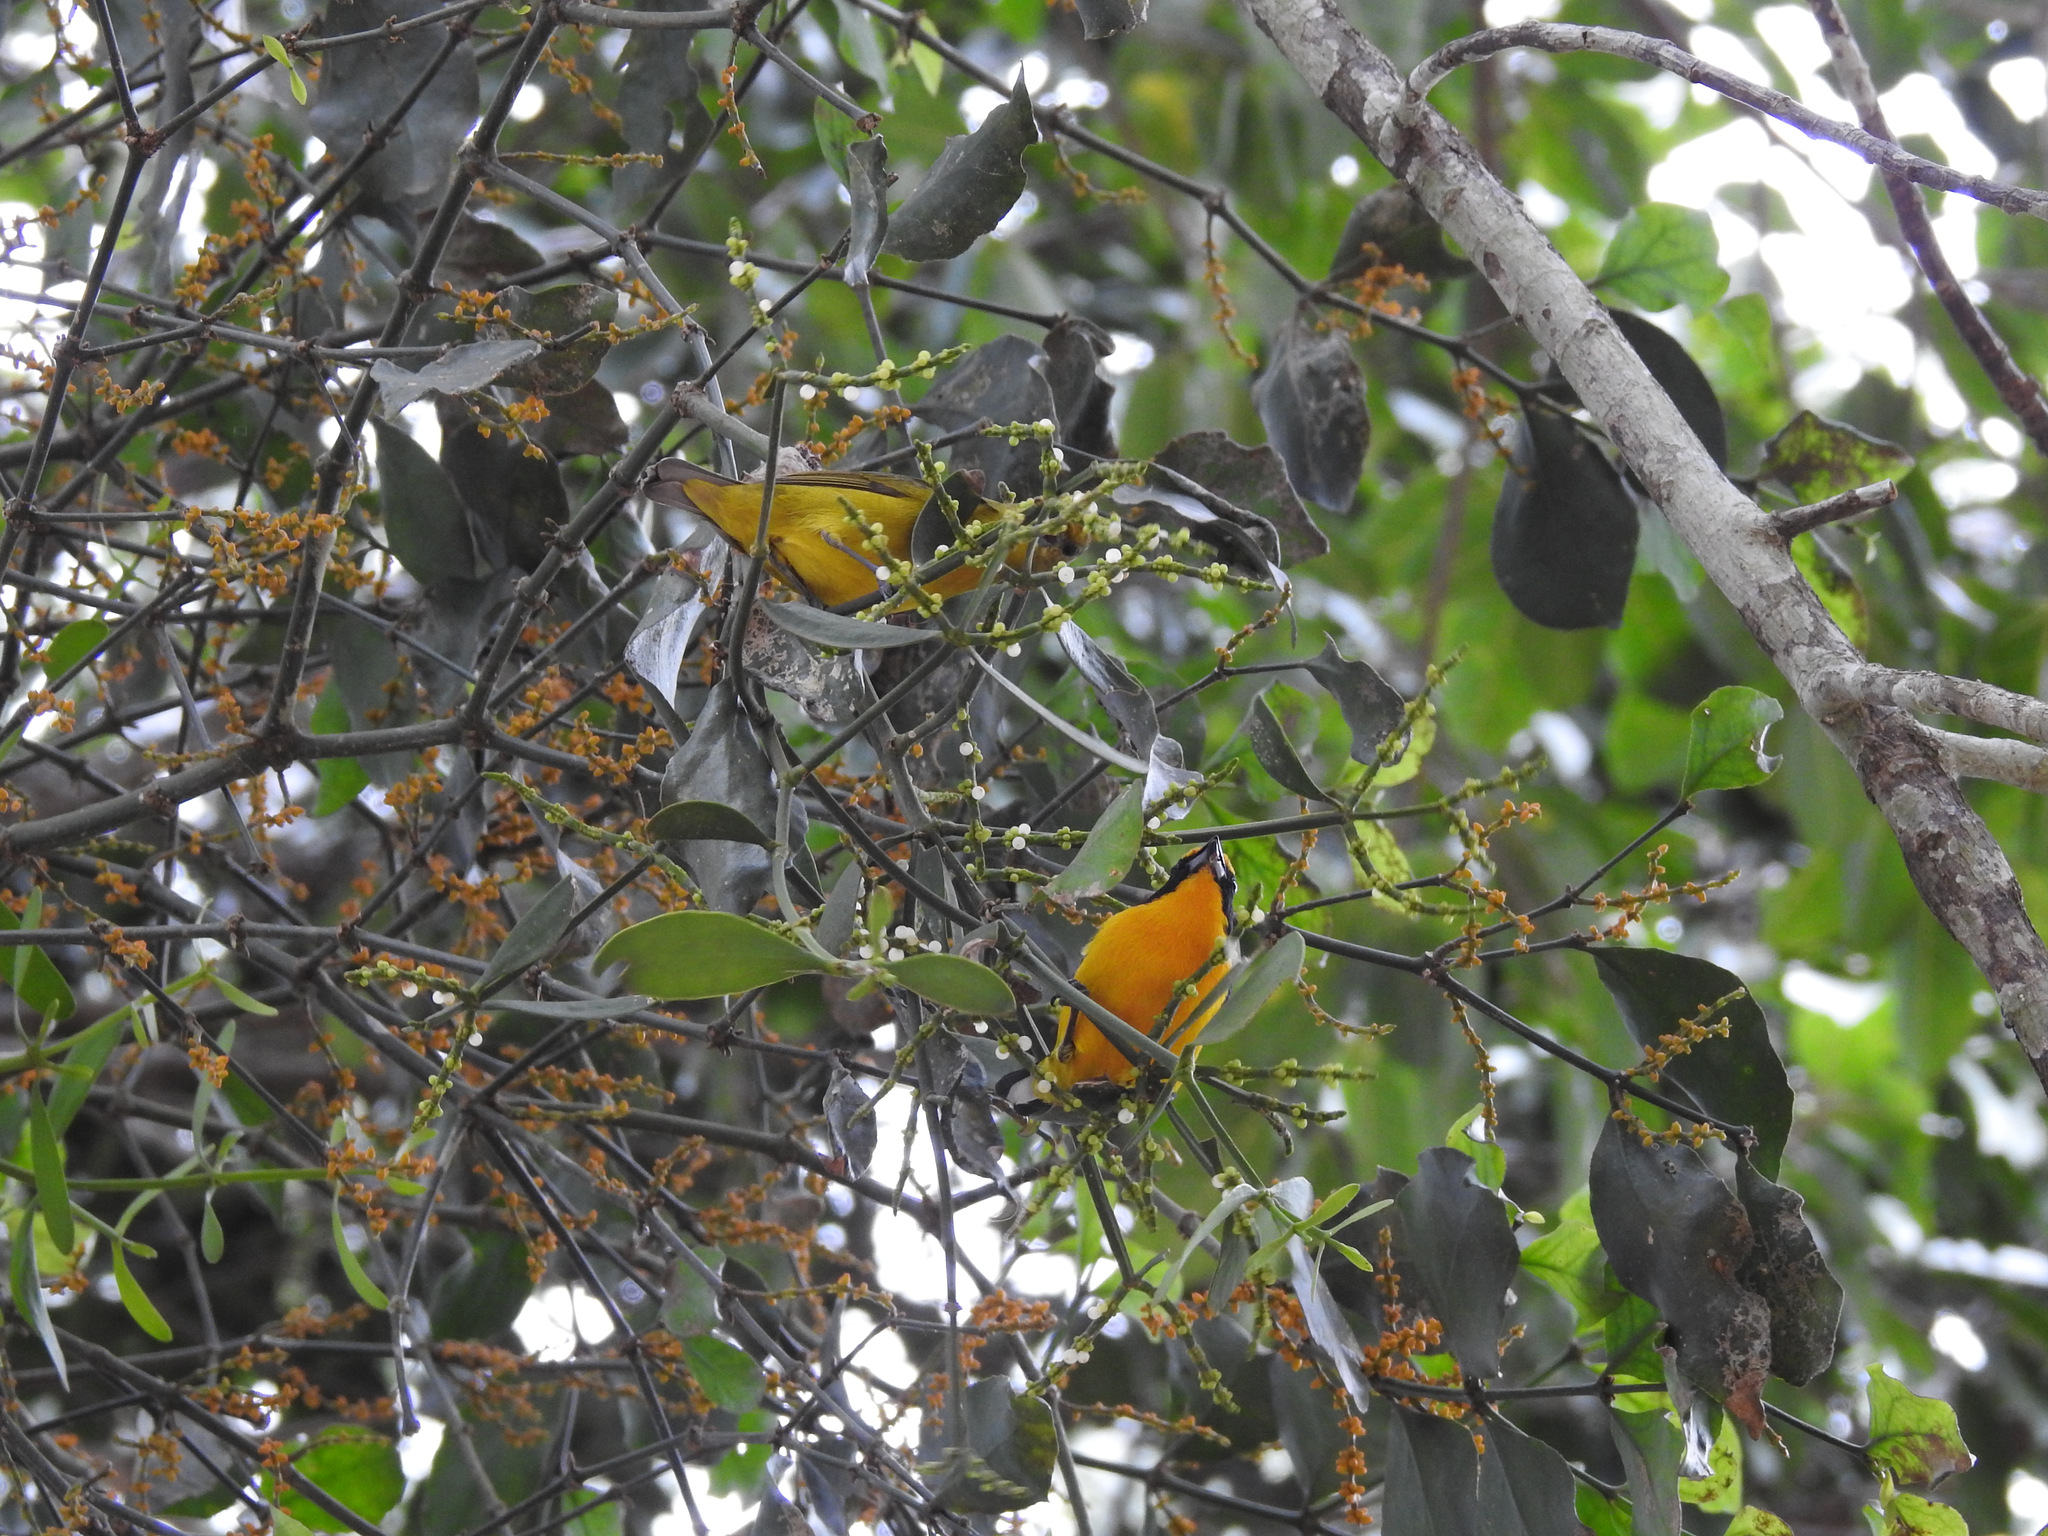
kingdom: Animalia
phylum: Chordata
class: Aves
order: Passeriformes
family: Fringillidae
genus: Euphonia
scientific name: Euphonia violacea
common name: Violaceous euphonia
